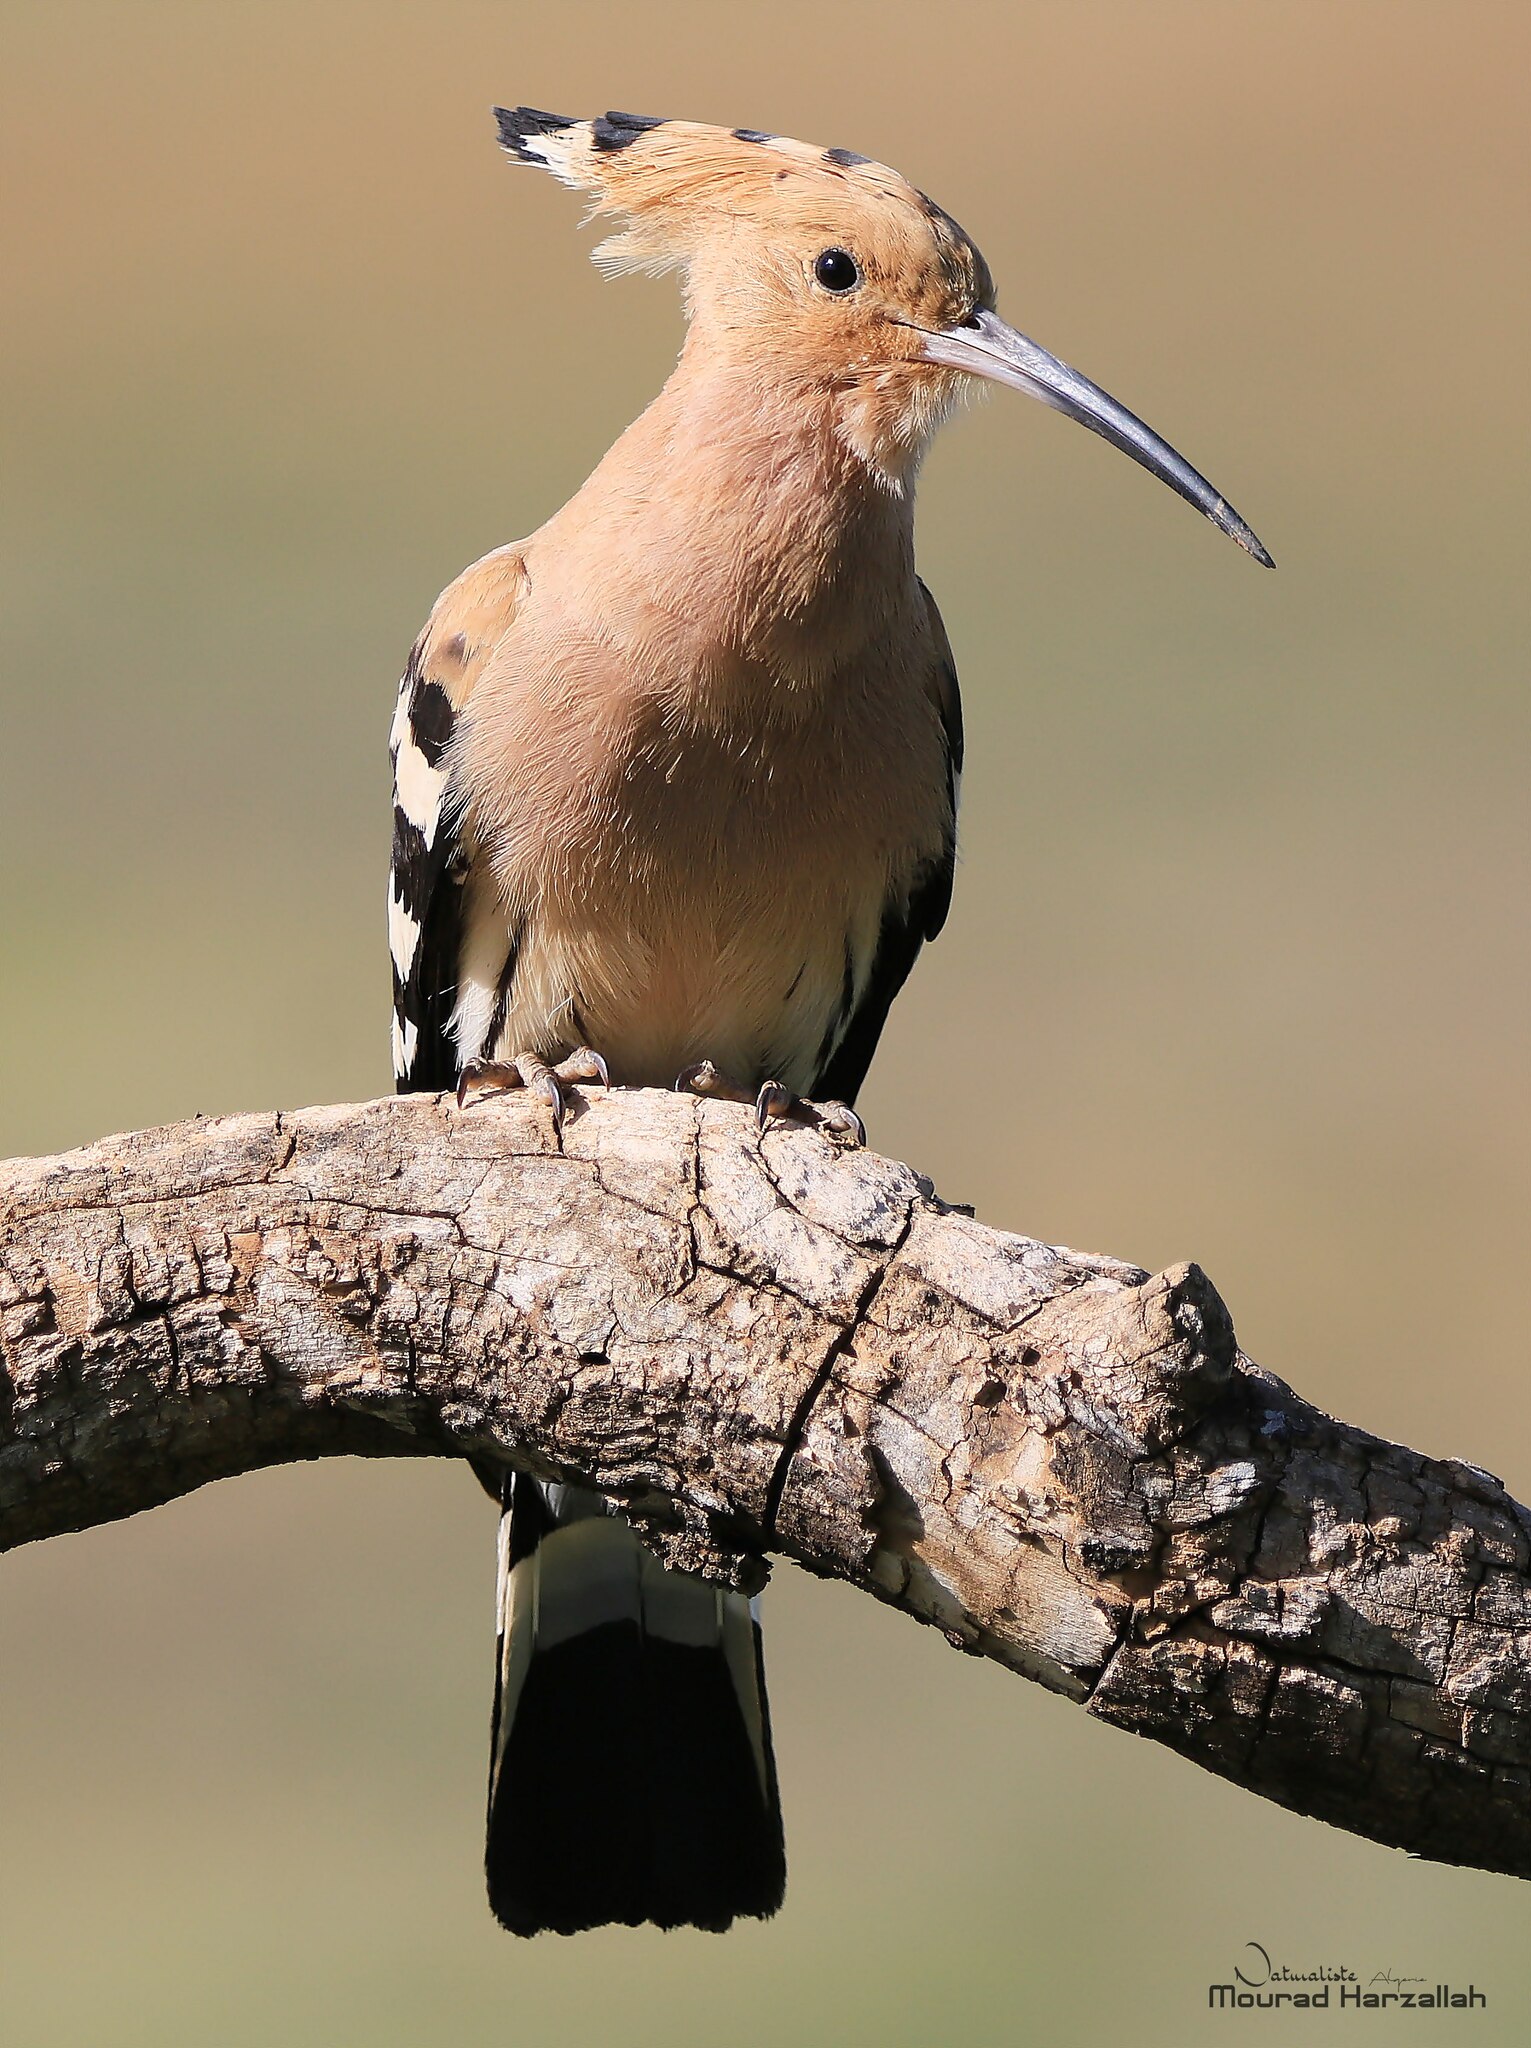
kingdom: Animalia
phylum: Chordata
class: Aves
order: Bucerotiformes
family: Upupidae
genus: Upupa
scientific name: Upupa epops
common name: Eurasian hoopoe
